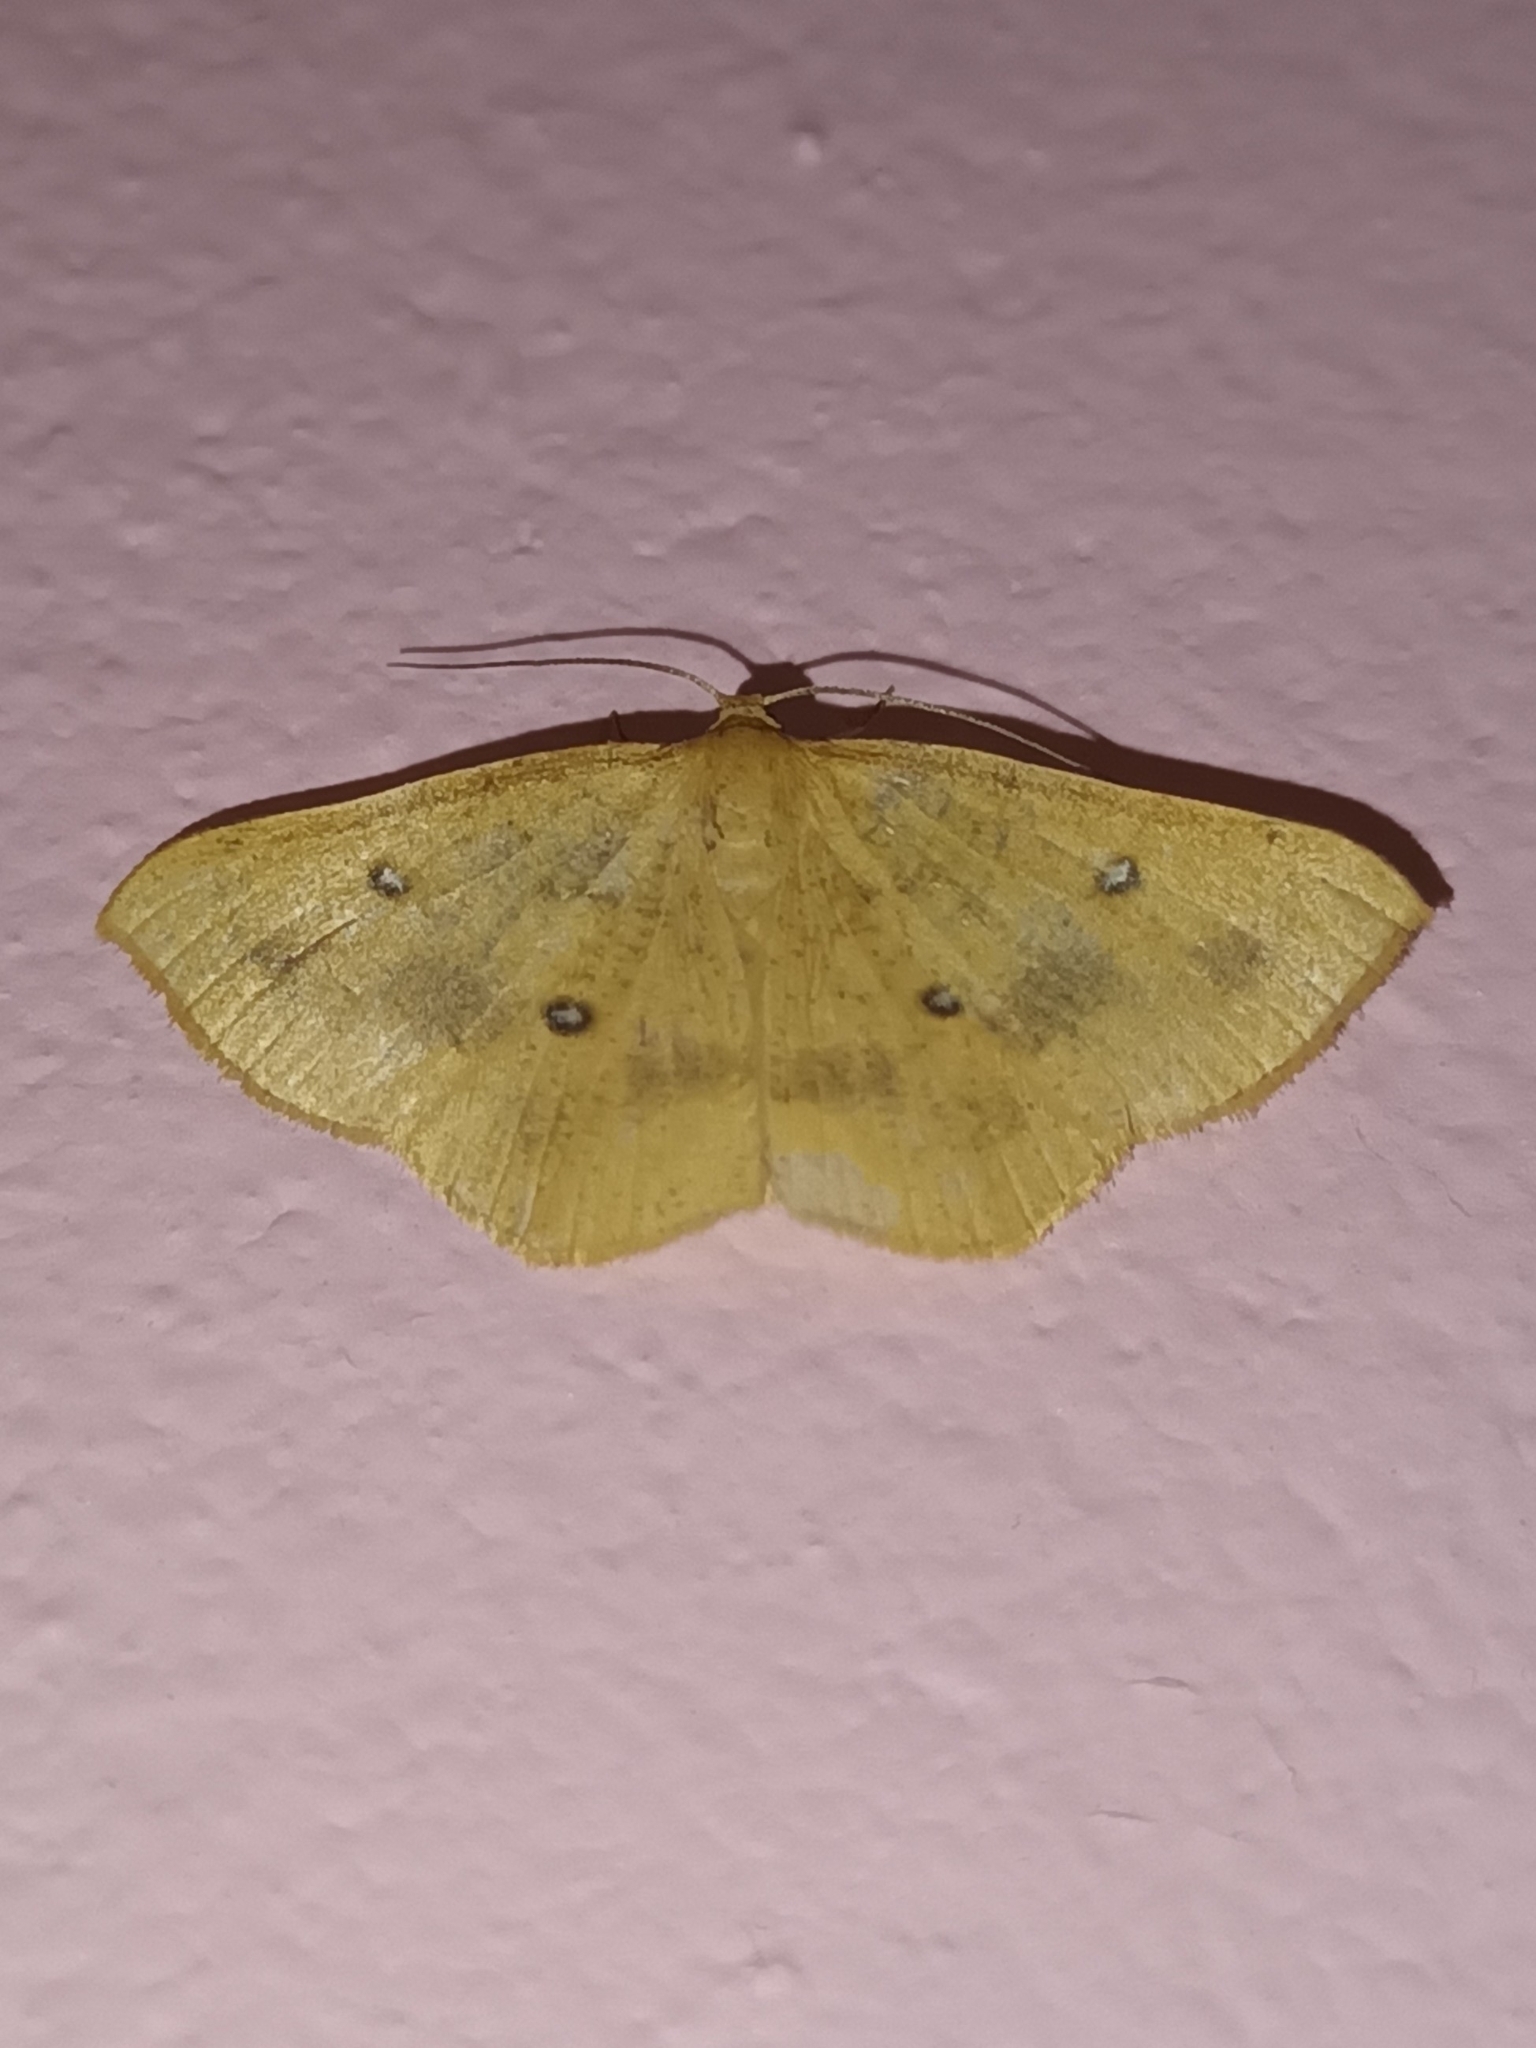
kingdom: Animalia
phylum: Arthropoda
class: Insecta
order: Lepidoptera
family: Geometridae
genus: Palaeaspilates
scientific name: Palaeaspilates Anisephyra ocularia
